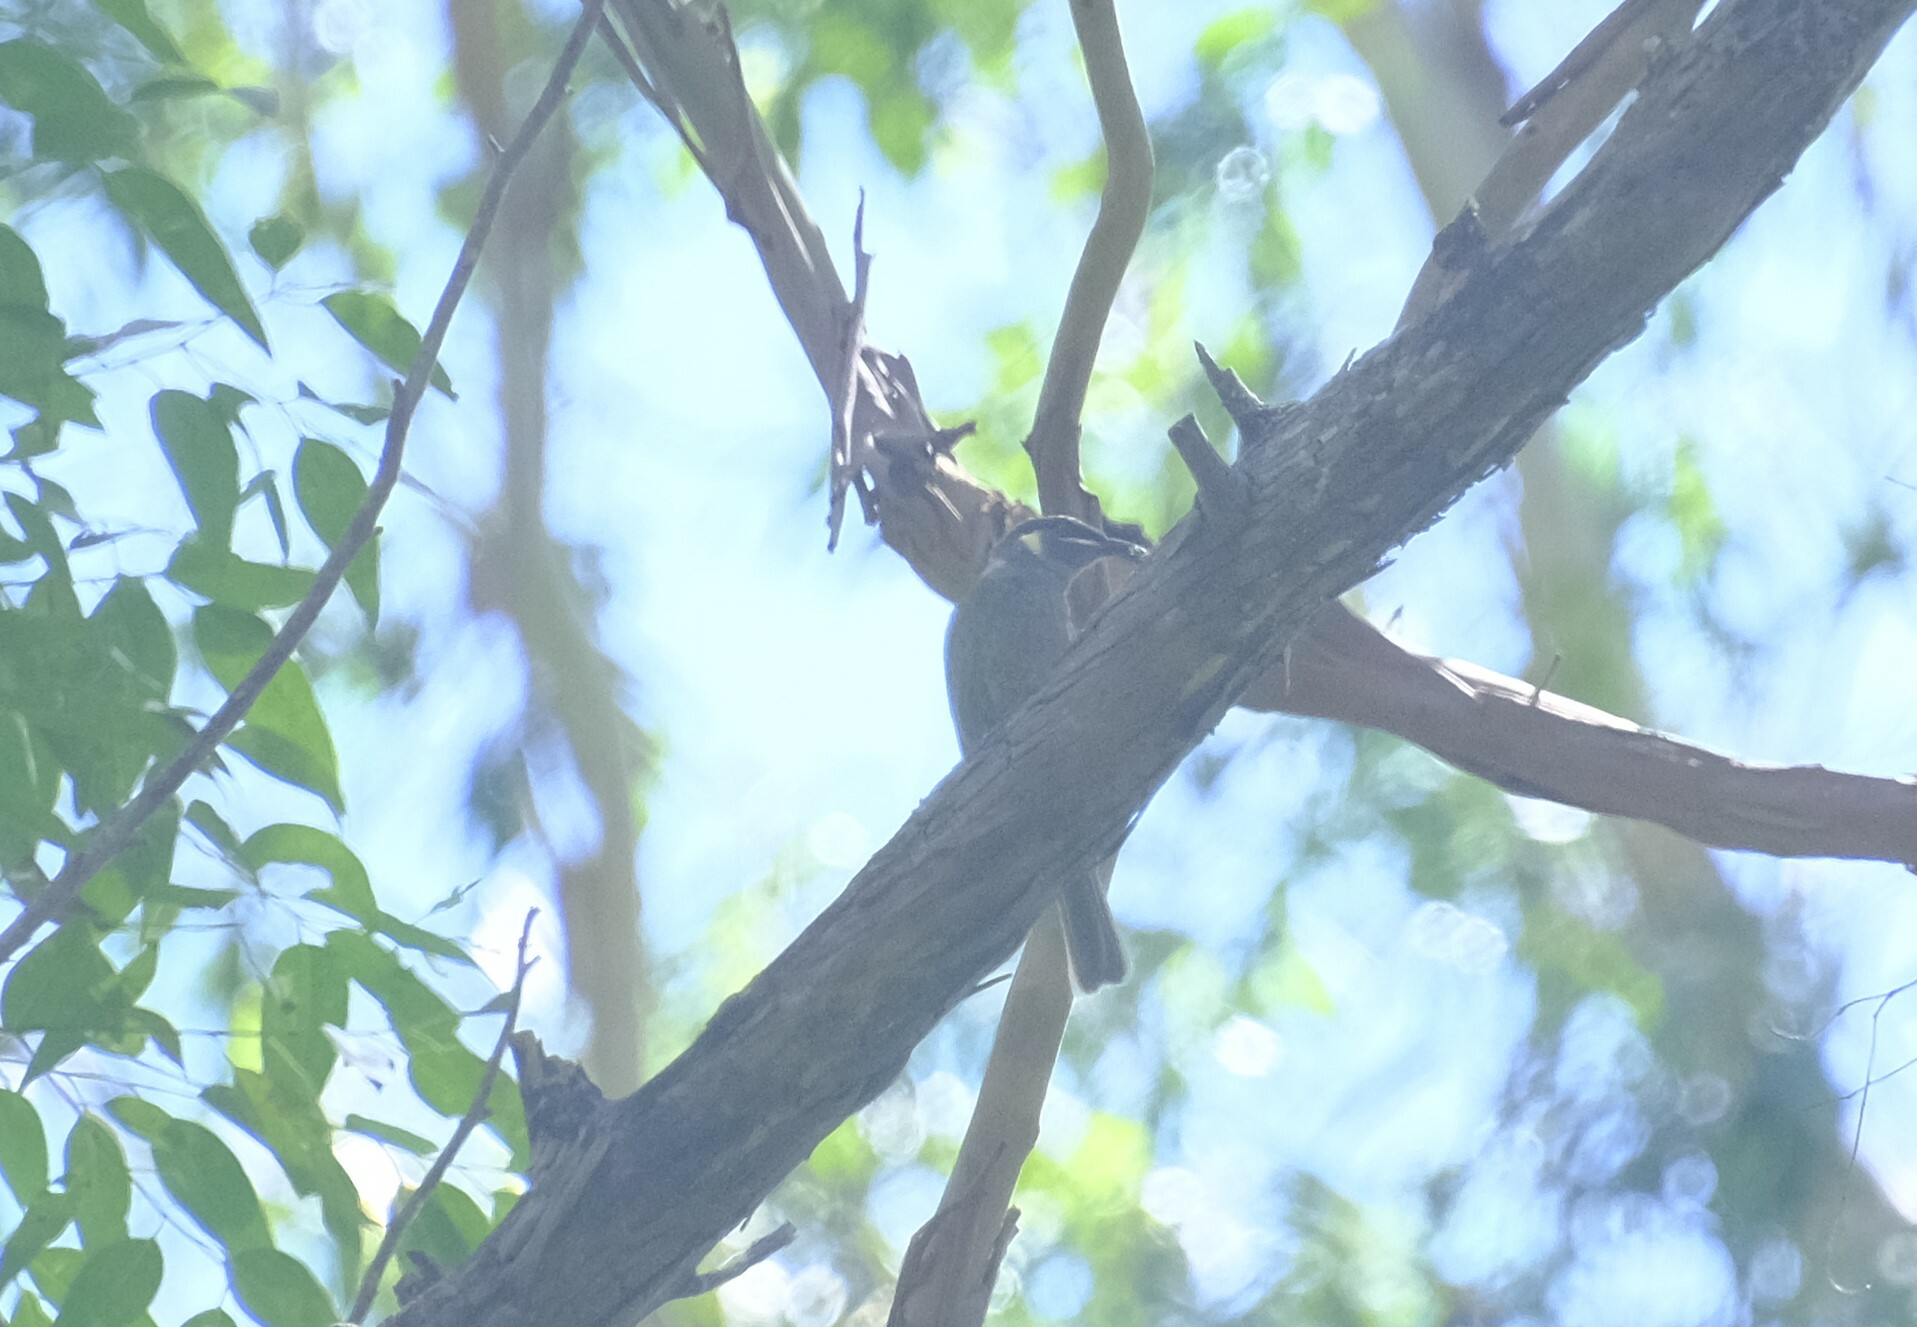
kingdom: Animalia
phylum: Chordata
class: Aves
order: Passeriformes
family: Meliphagidae
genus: Meliphaga
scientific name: Meliphaga lewinii
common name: Lewin's honeyeater
